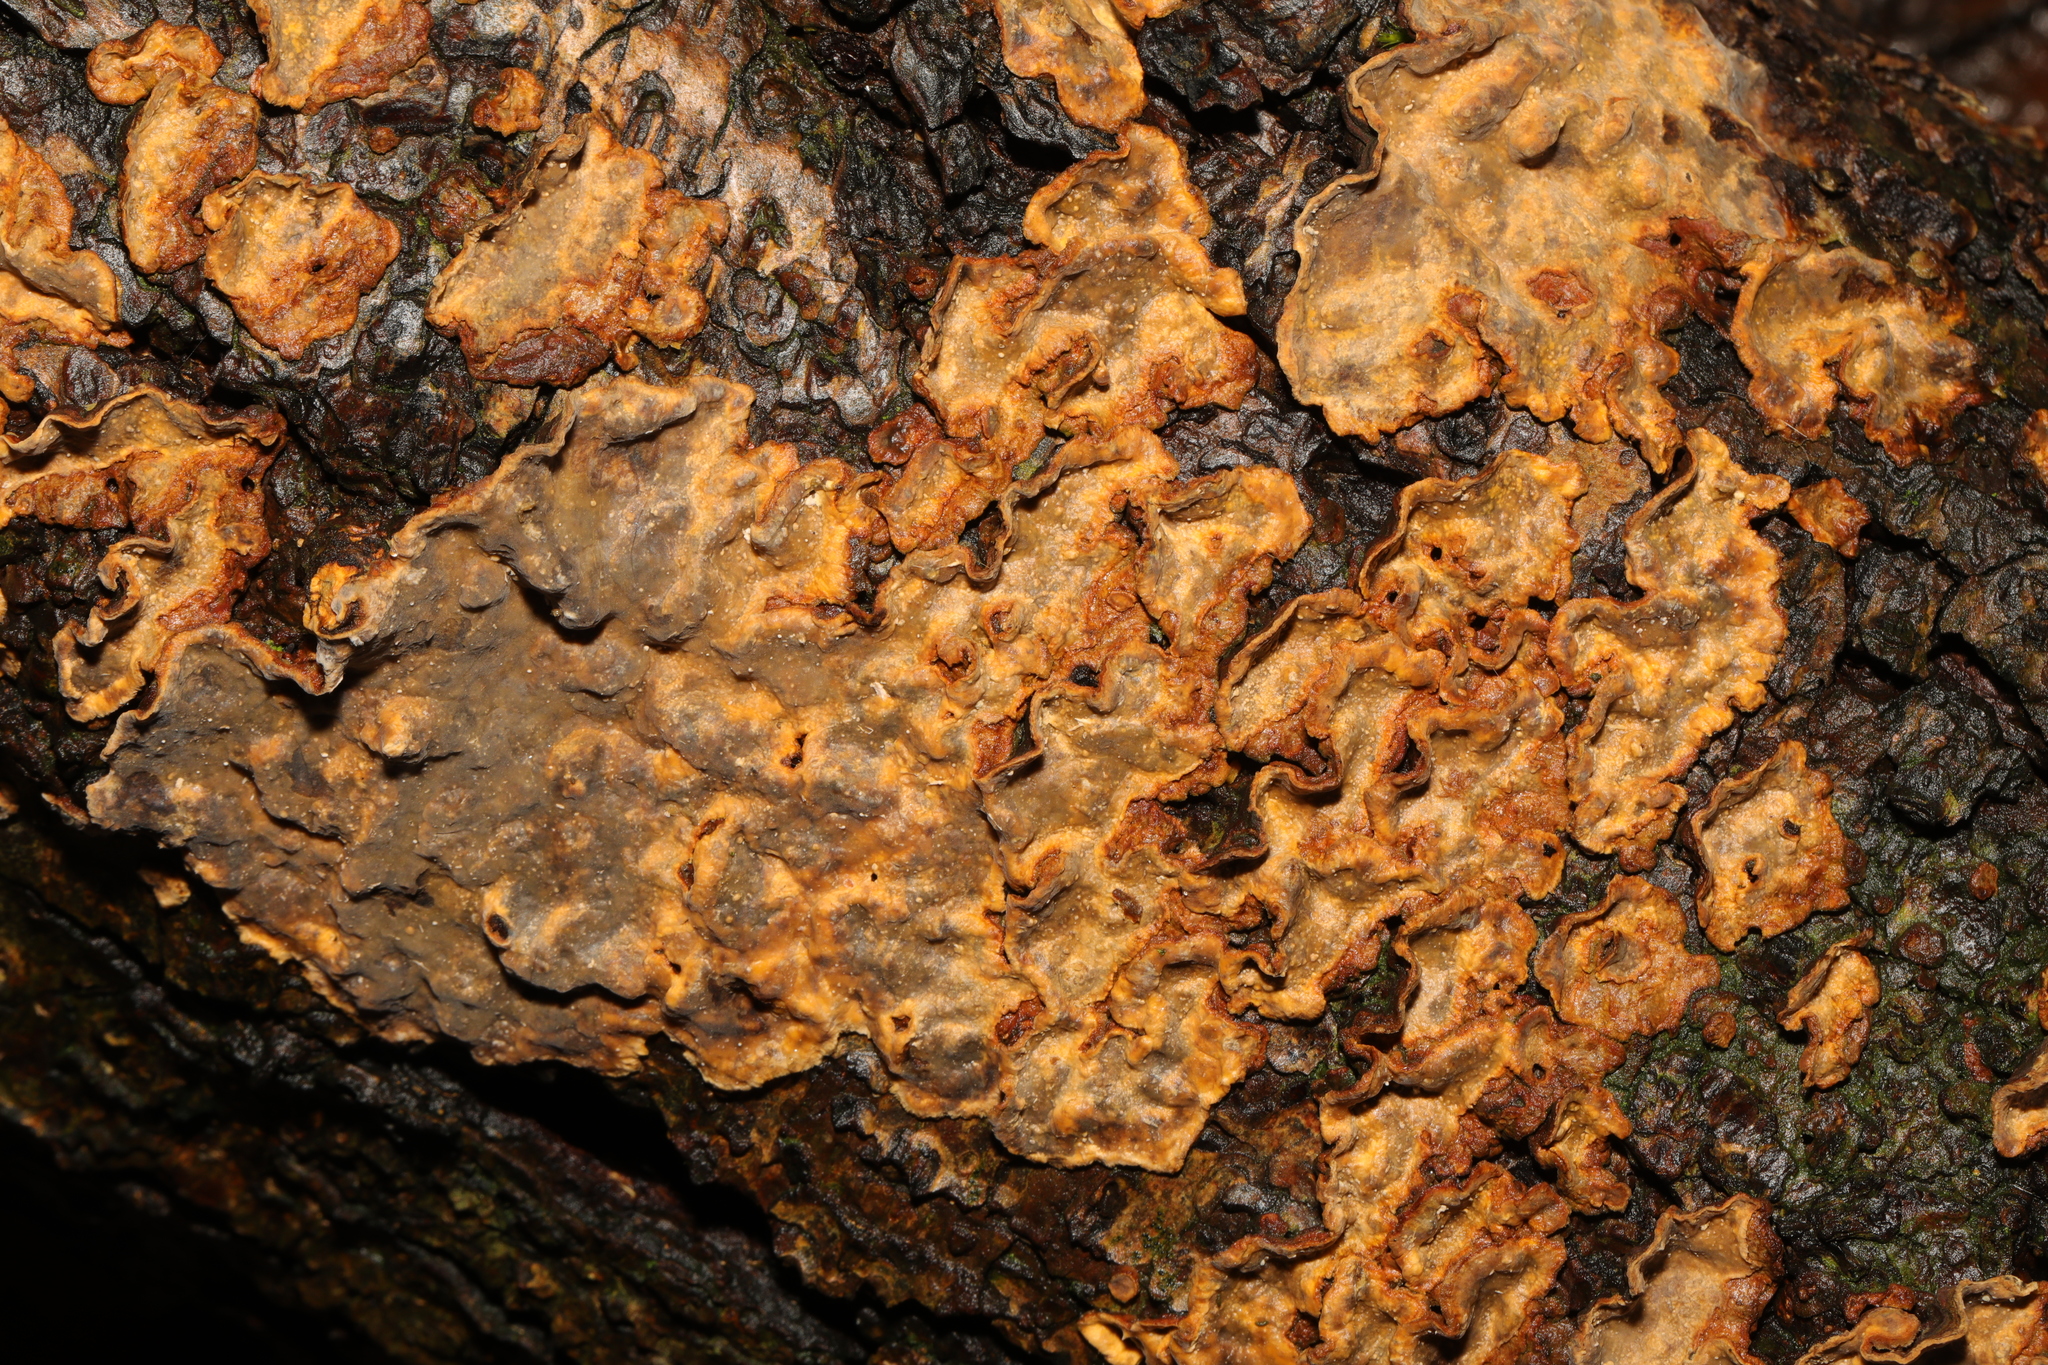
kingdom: Fungi
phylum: Basidiomycota
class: Agaricomycetes
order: Russulales
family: Stereaceae
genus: Stereum
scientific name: Stereum rugosum
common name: Bleeding broadleaf crust
